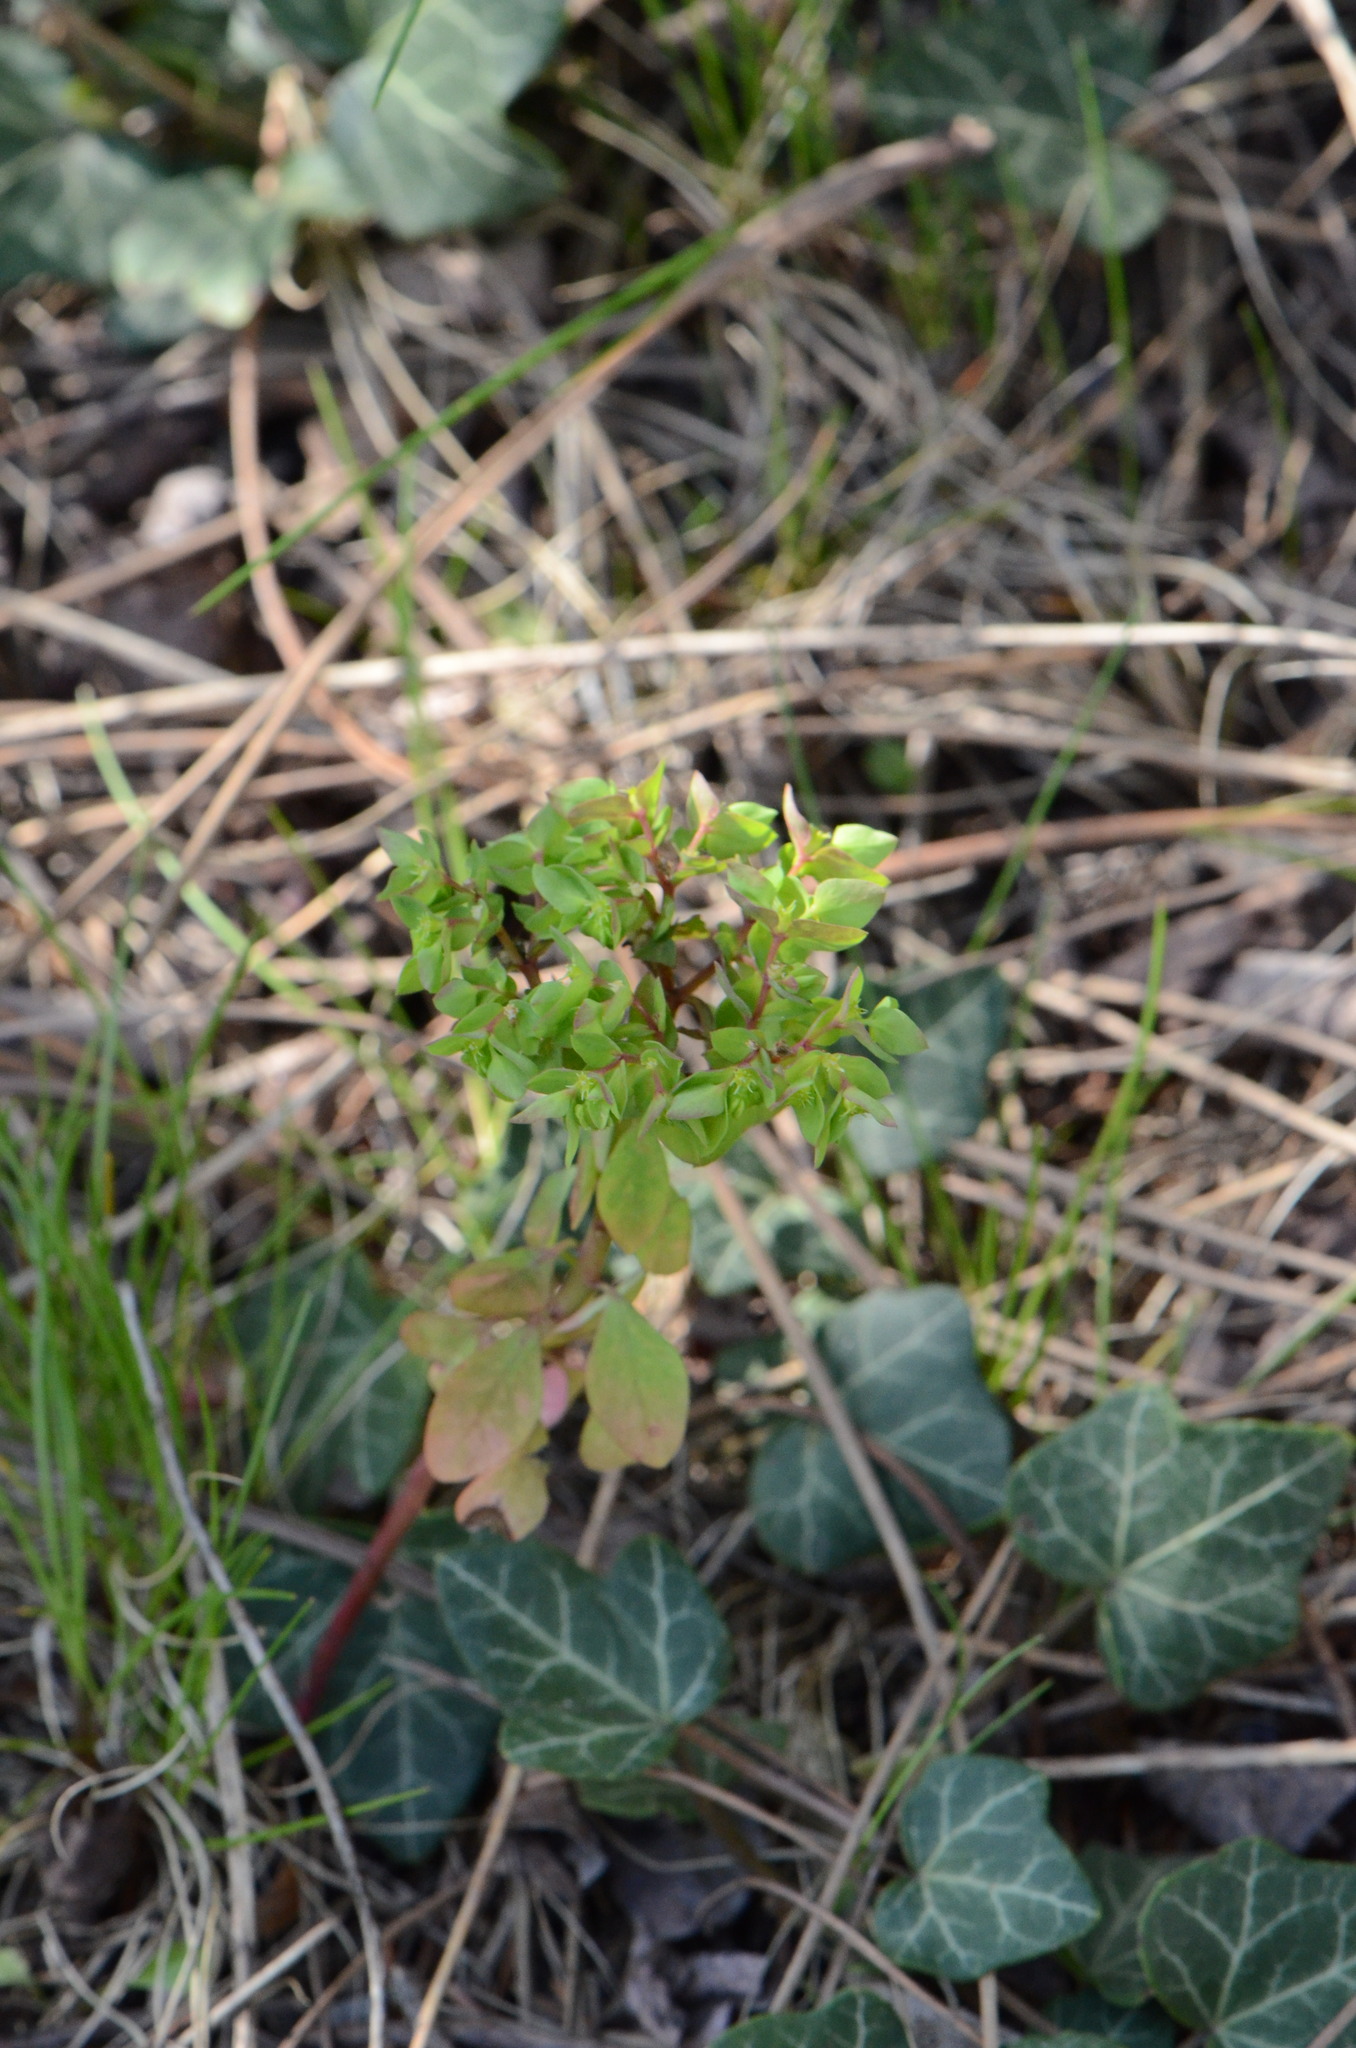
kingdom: Plantae
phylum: Tracheophyta
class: Magnoliopsida
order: Malpighiales
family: Euphorbiaceae
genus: Euphorbia
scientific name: Euphorbia helioscopia
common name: Sun spurge
